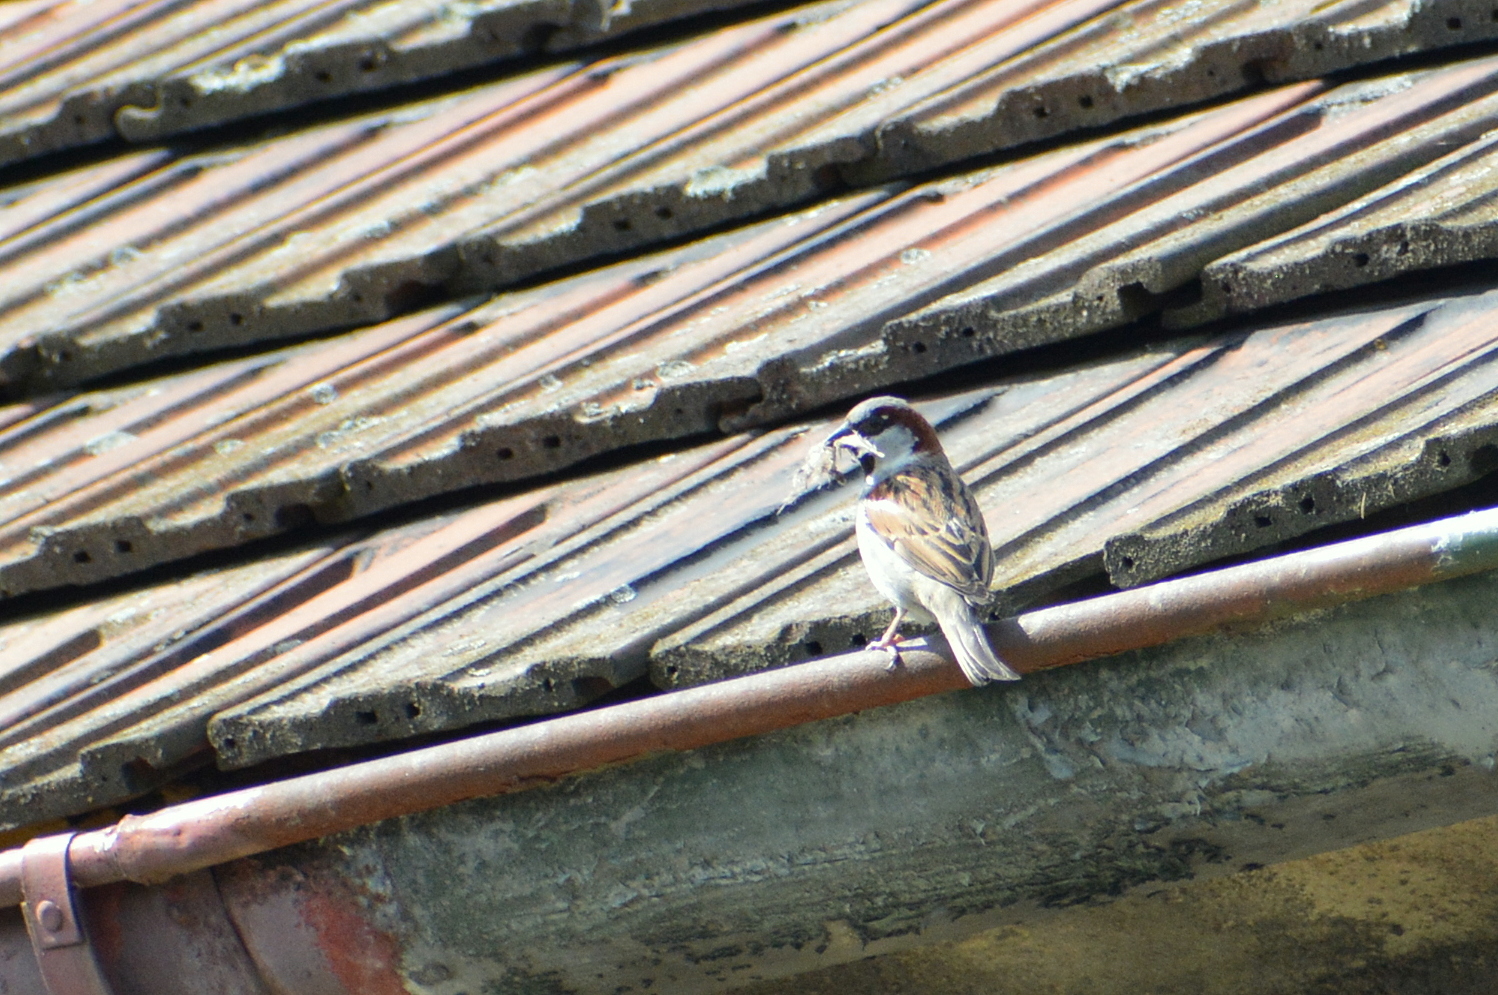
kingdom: Animalia
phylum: Chordata
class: Aves
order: Passeriformes
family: Passeridae
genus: Passer
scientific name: Passer domesticus
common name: House sparrow
